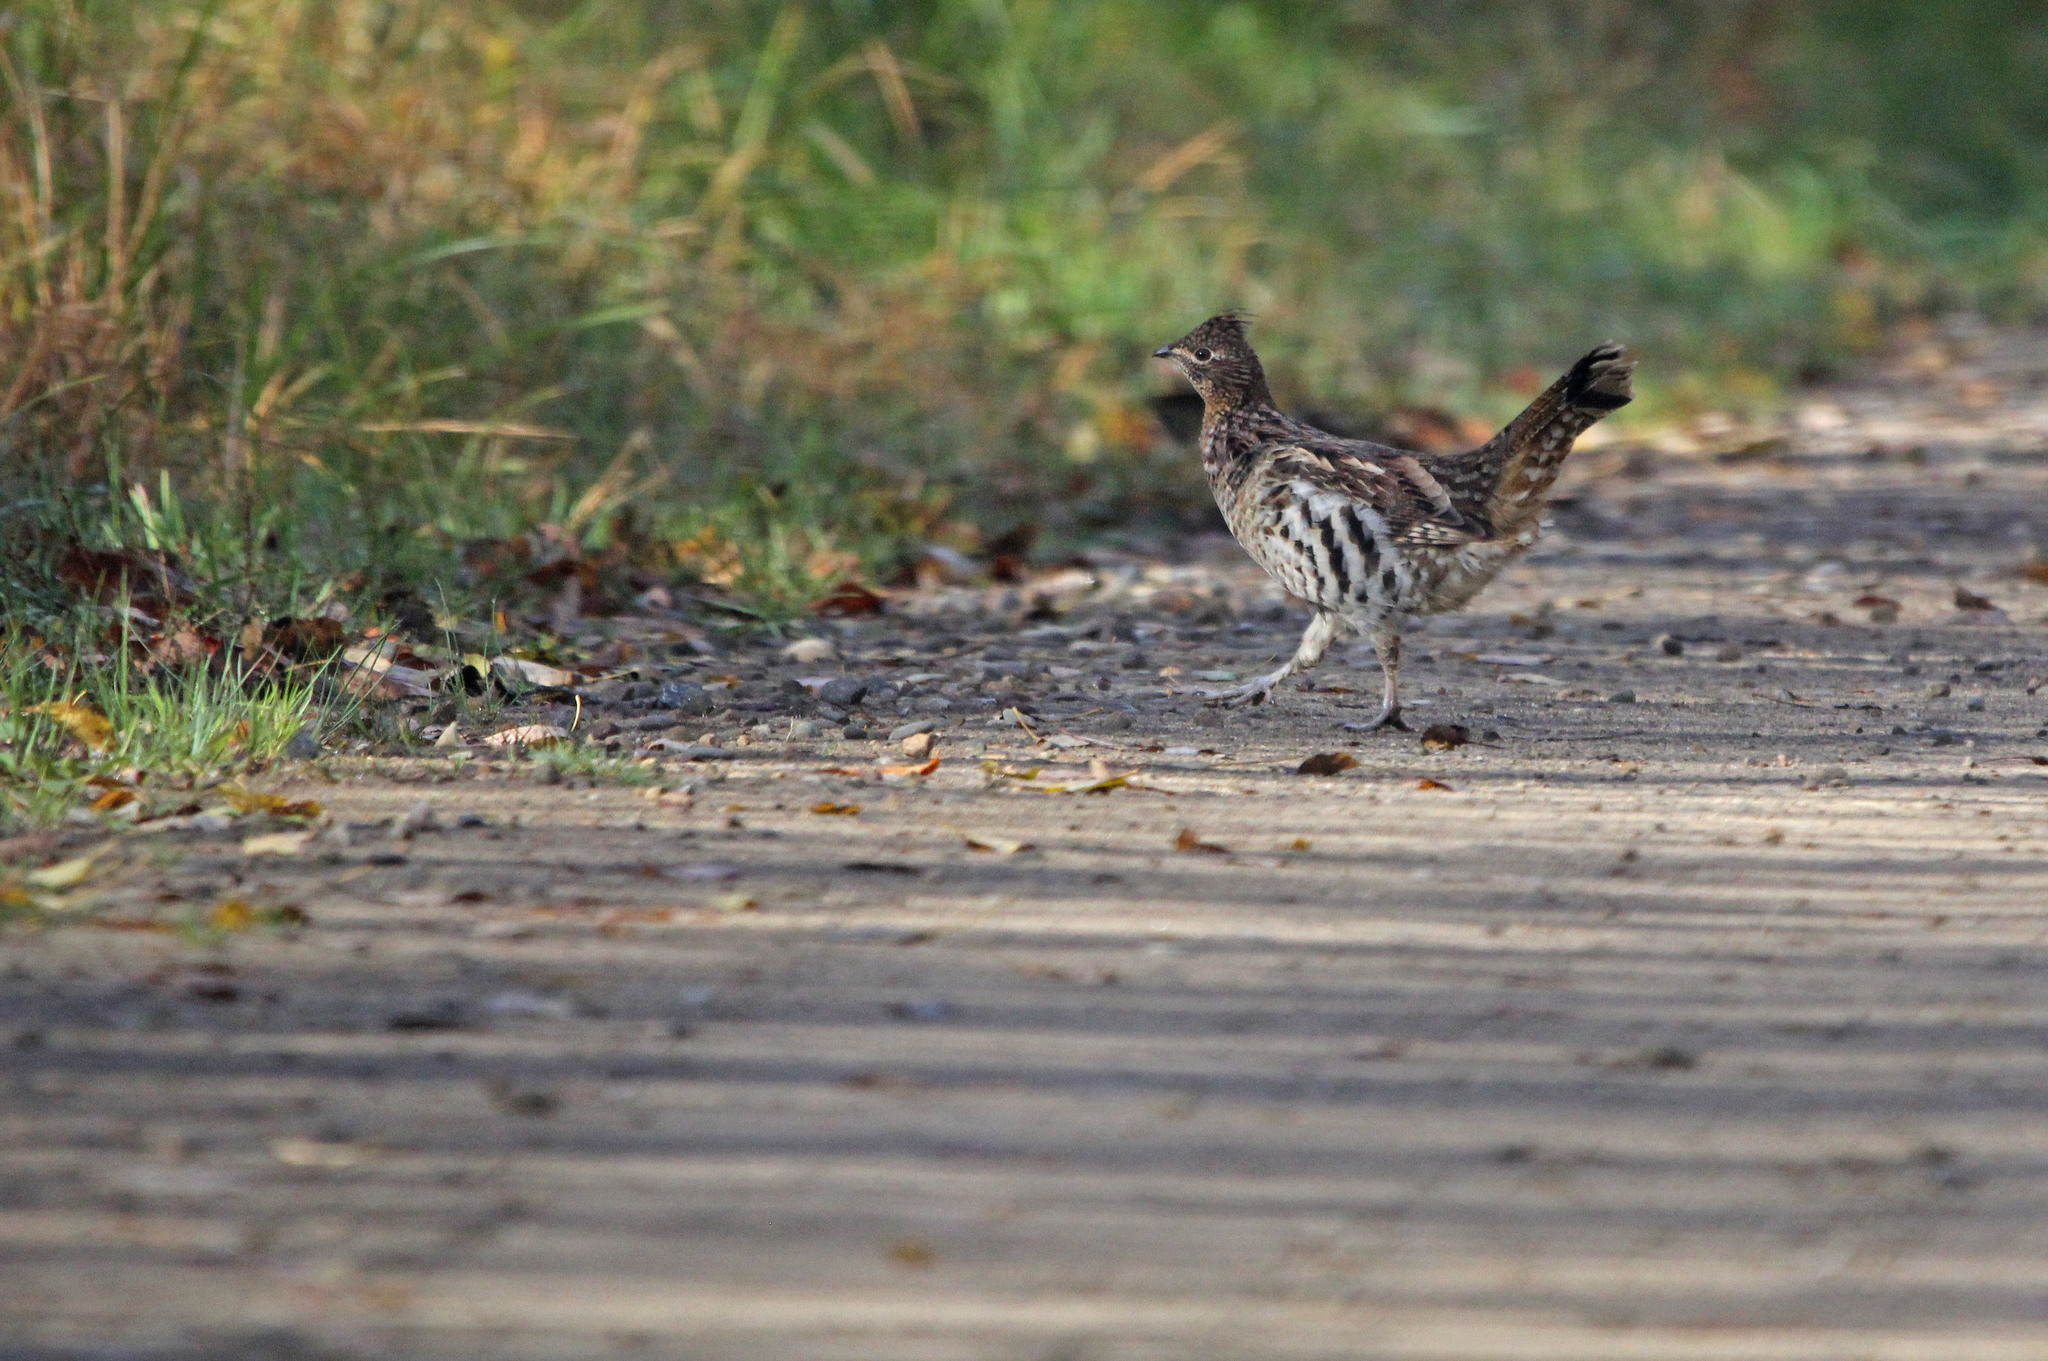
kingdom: Animalia
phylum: Chordata
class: Aves
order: Galliformes
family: Phasianidae
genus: Bonasa
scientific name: Bonasa umbellus
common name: Ruffed grouse
